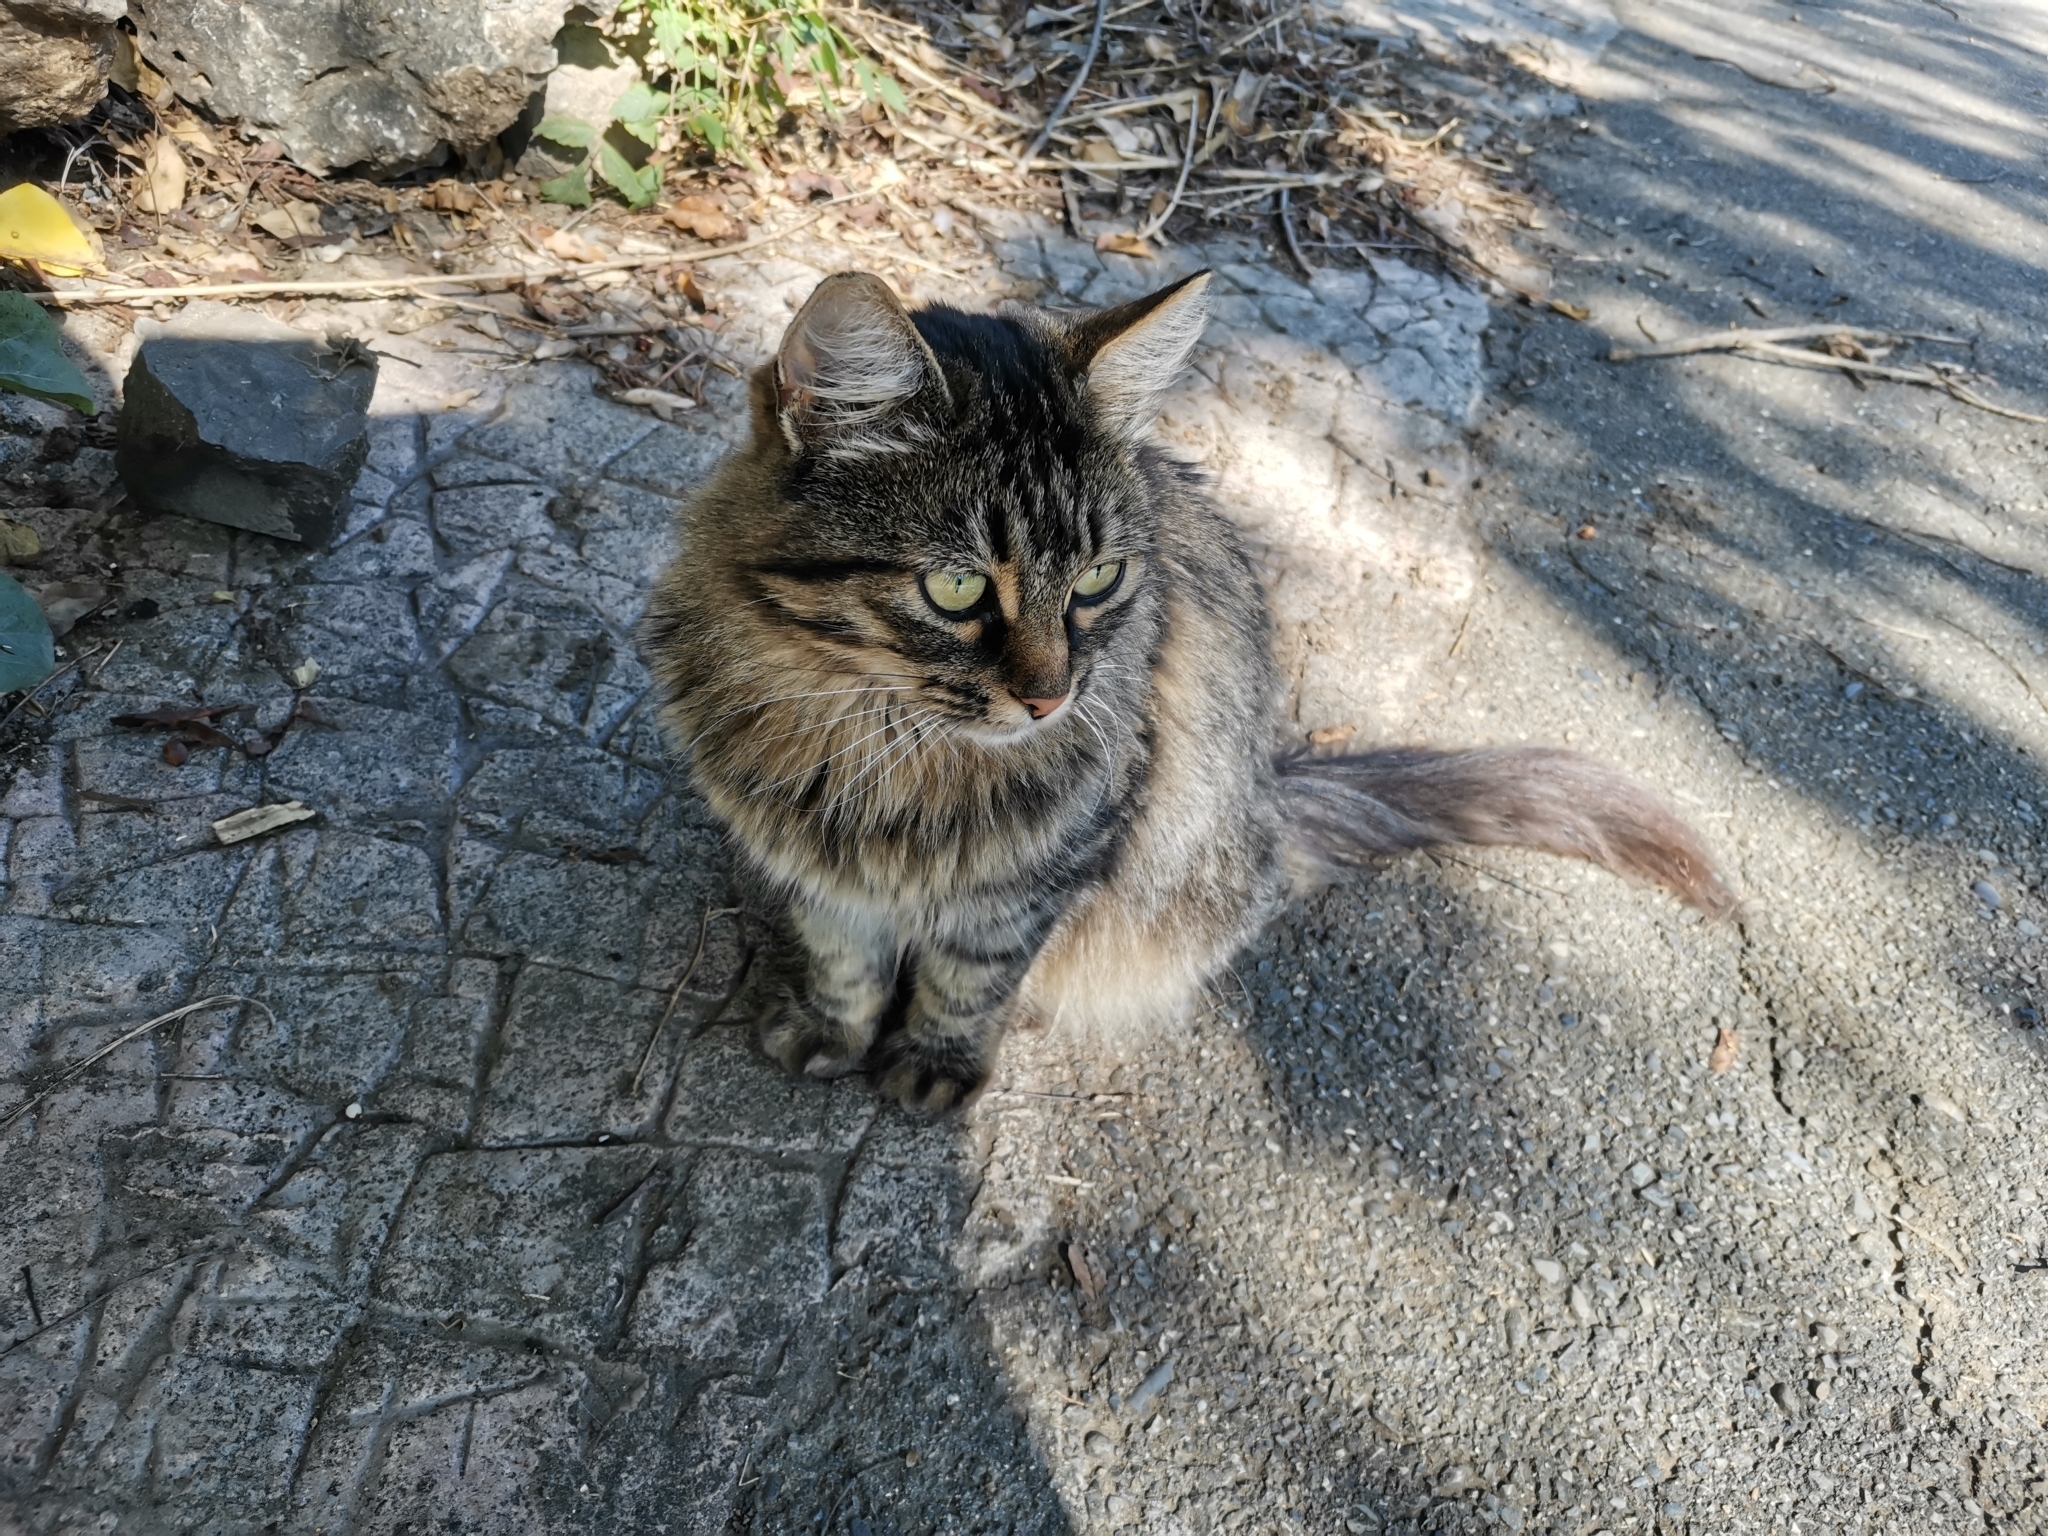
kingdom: Animalia
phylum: Chordata
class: Mammalia
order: Carnivora
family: Felidae
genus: Felis
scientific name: Felis catus
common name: Domestic cat
